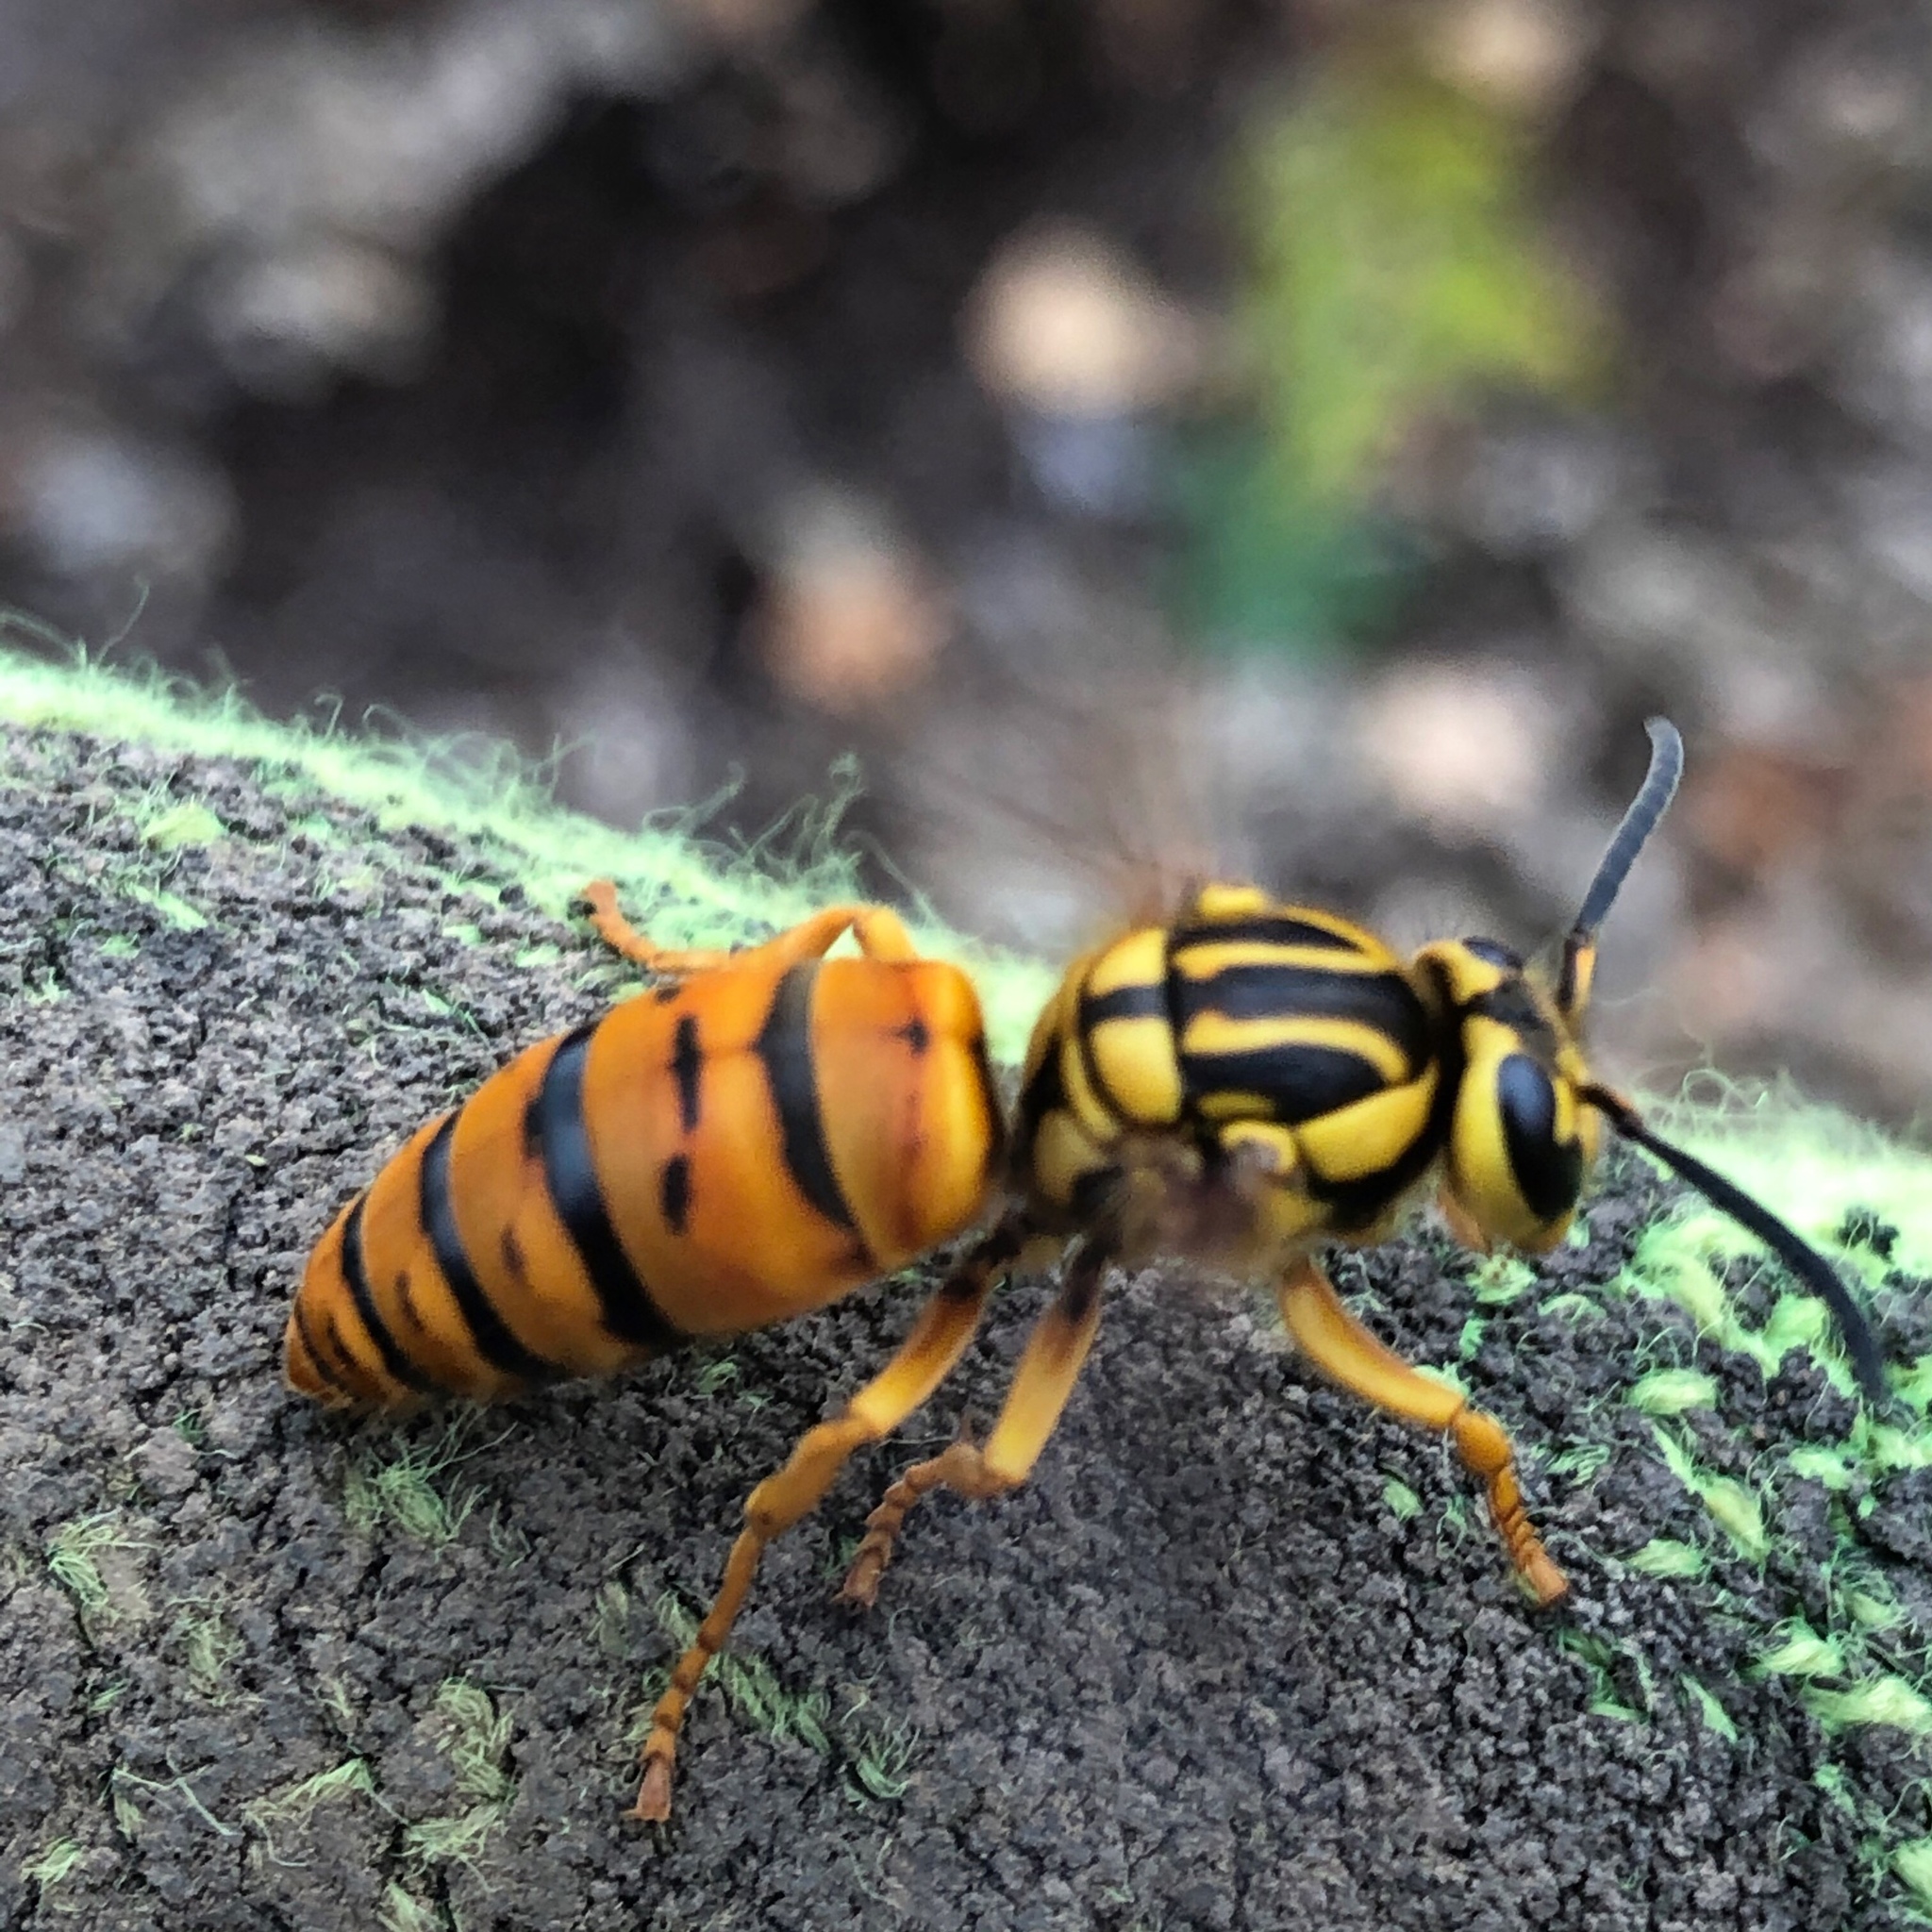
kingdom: Animalia
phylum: Arthropoda
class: Insecta
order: Hymenoptera
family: Vespidae
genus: Vespula
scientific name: Vespula squamosa
